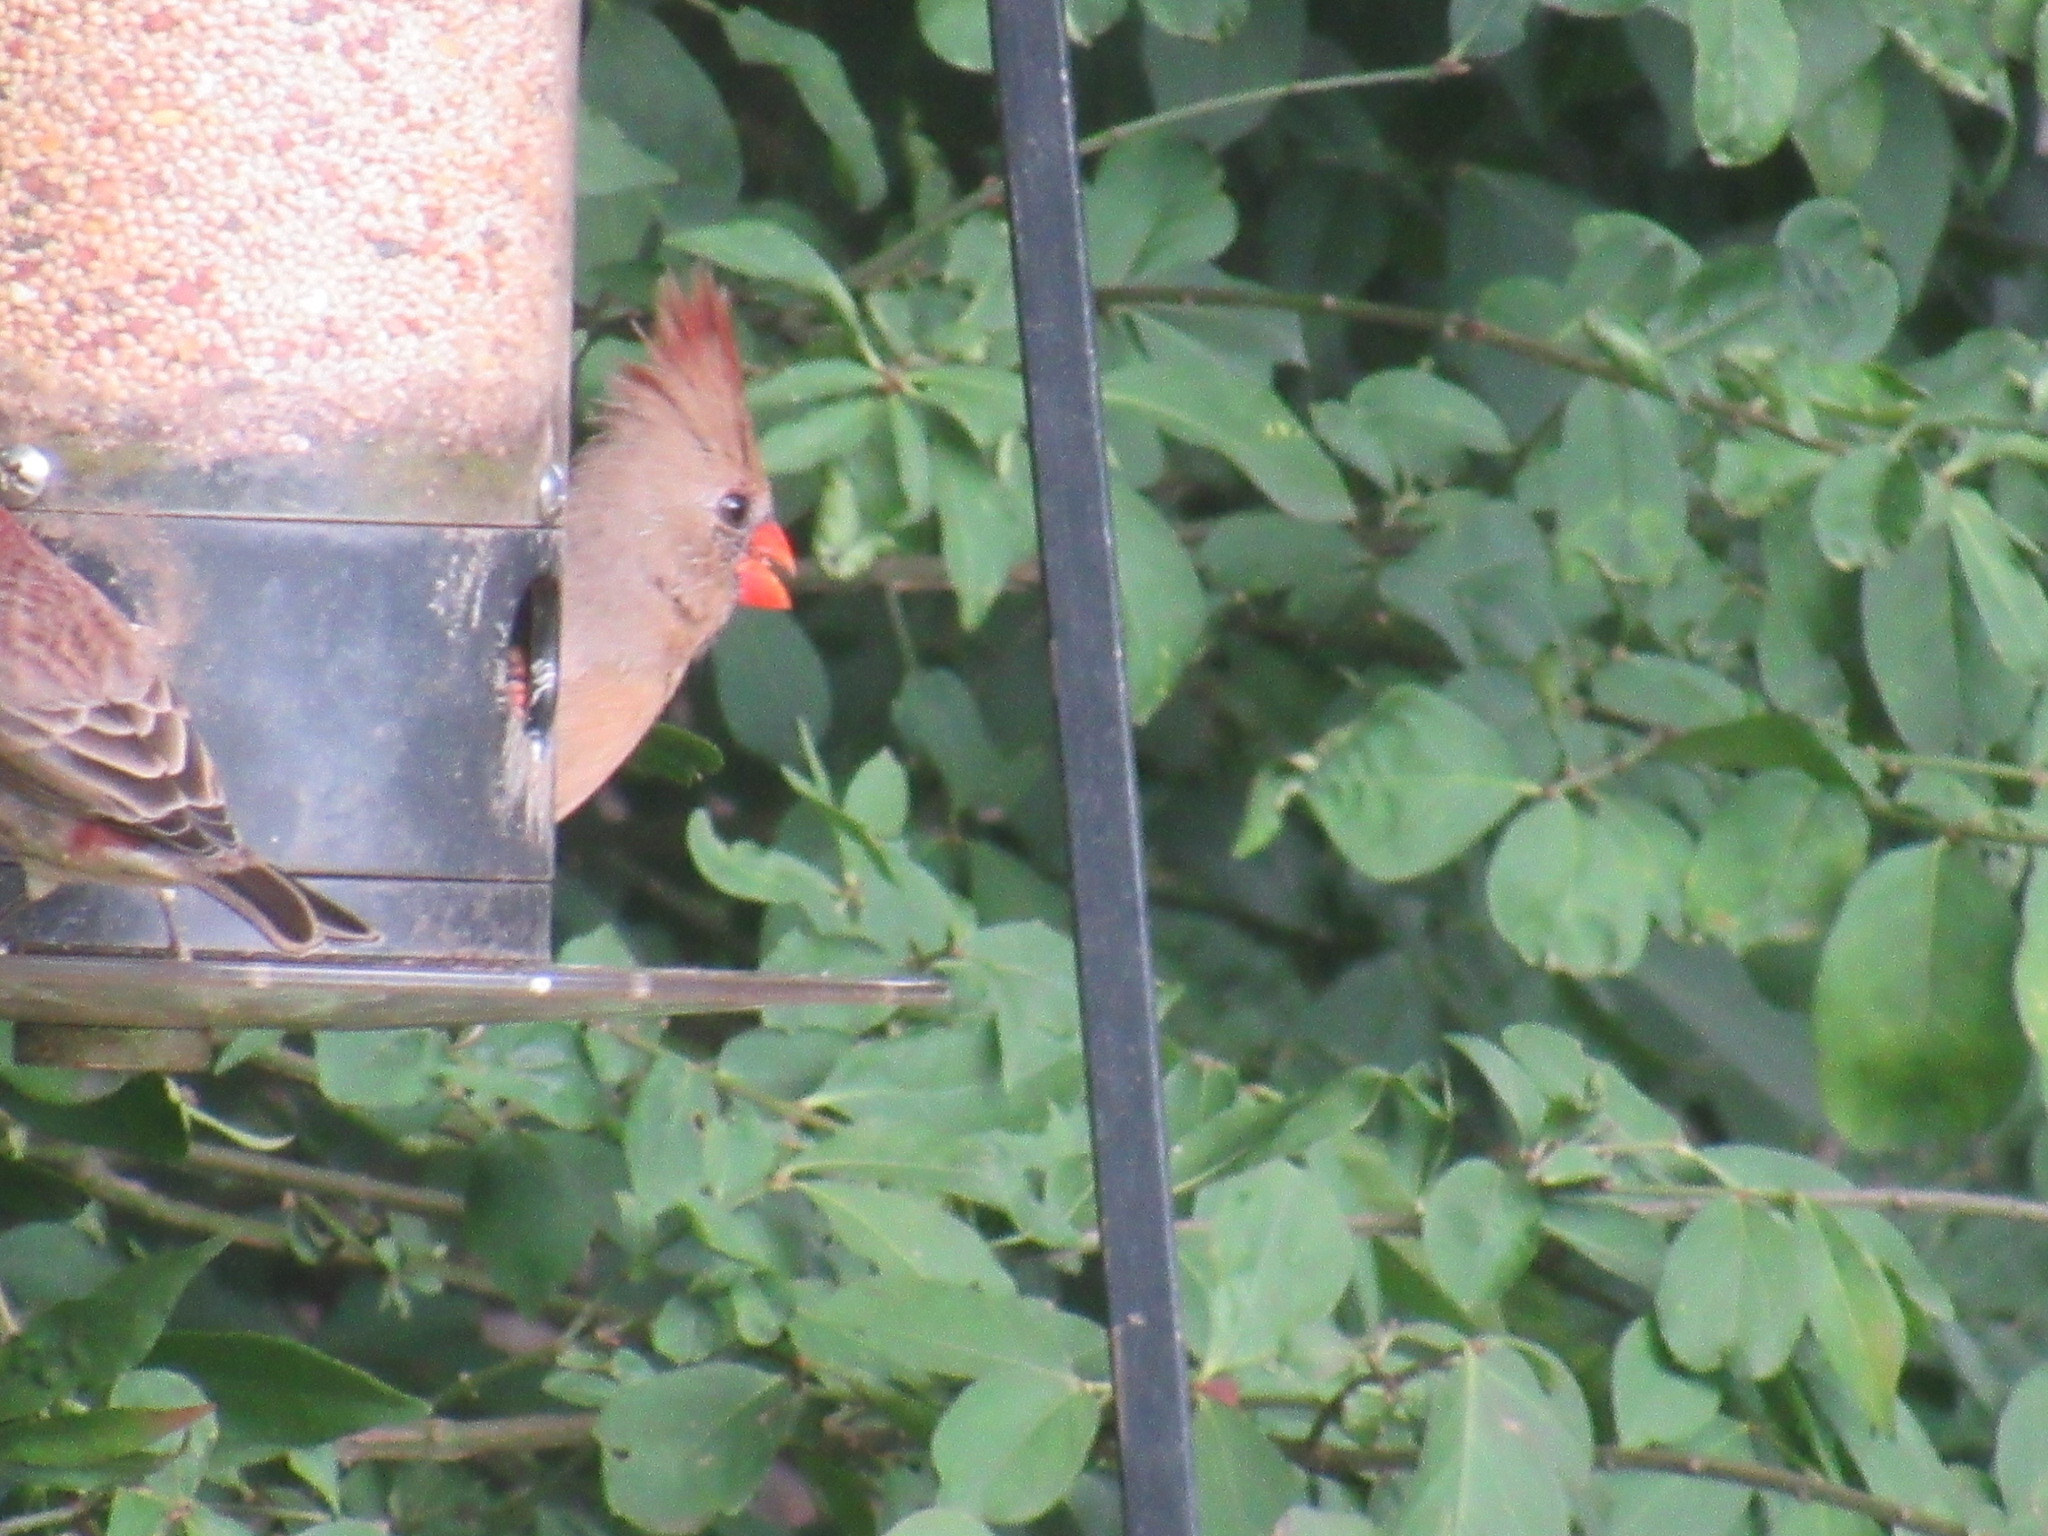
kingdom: Animalia
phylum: Chordata
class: Aves
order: Passeriformes
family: Cardinalidae
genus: Cardinalis
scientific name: Cardinalis cardinalis
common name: Northern cardinal
